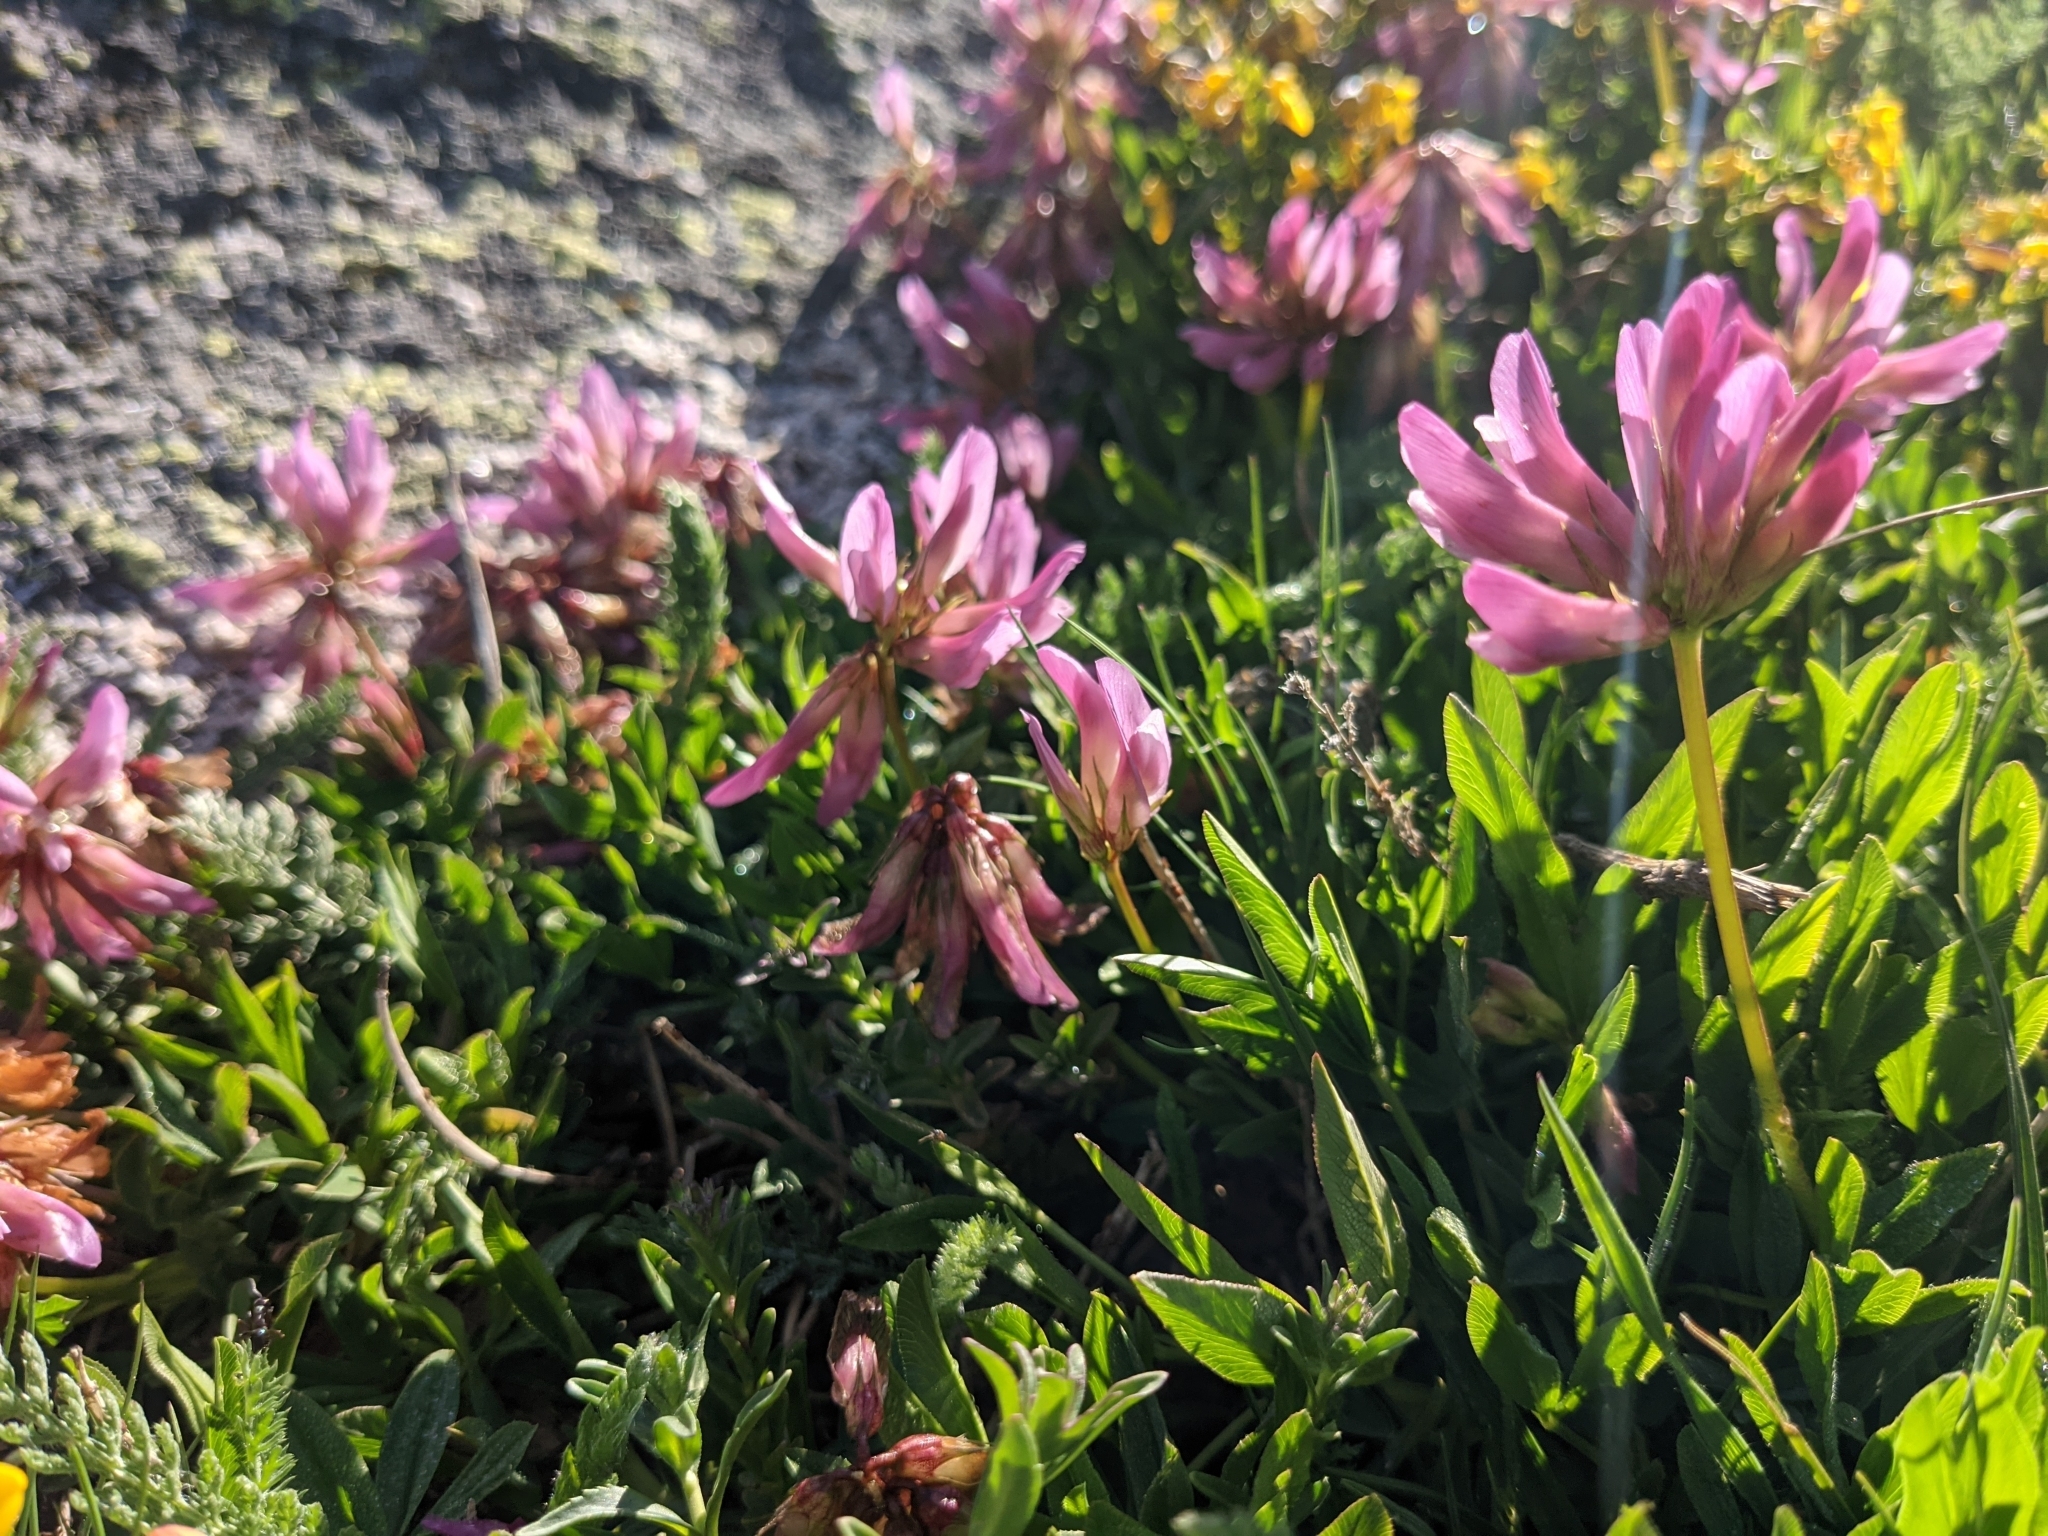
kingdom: Plantae
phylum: Tracheophyta
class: Magnoliopsida
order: Fabales
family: Fabaceae
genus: Trifolium
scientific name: Trifolium alpinum
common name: Alpine clover
